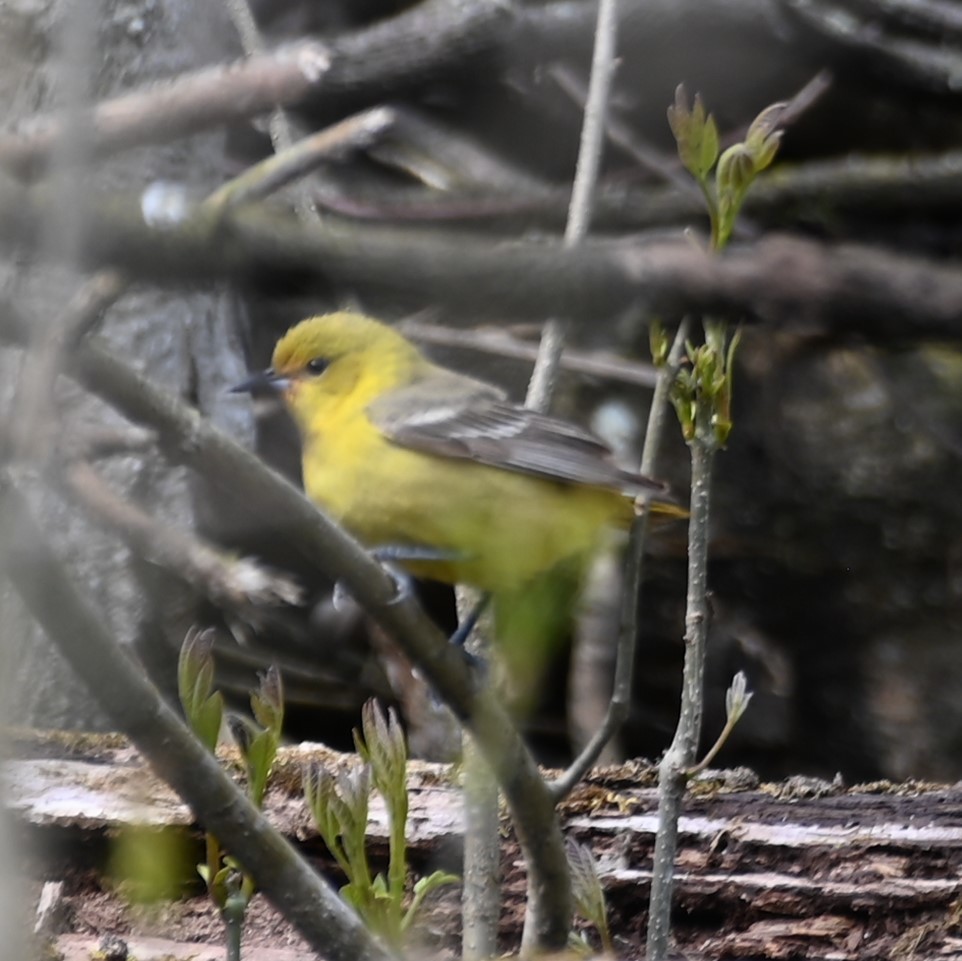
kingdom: Animalia
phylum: Chordata
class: Aves
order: Passeriformes
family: Icteridae
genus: Icterus
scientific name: Icterus spurius
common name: Orchard oriole
